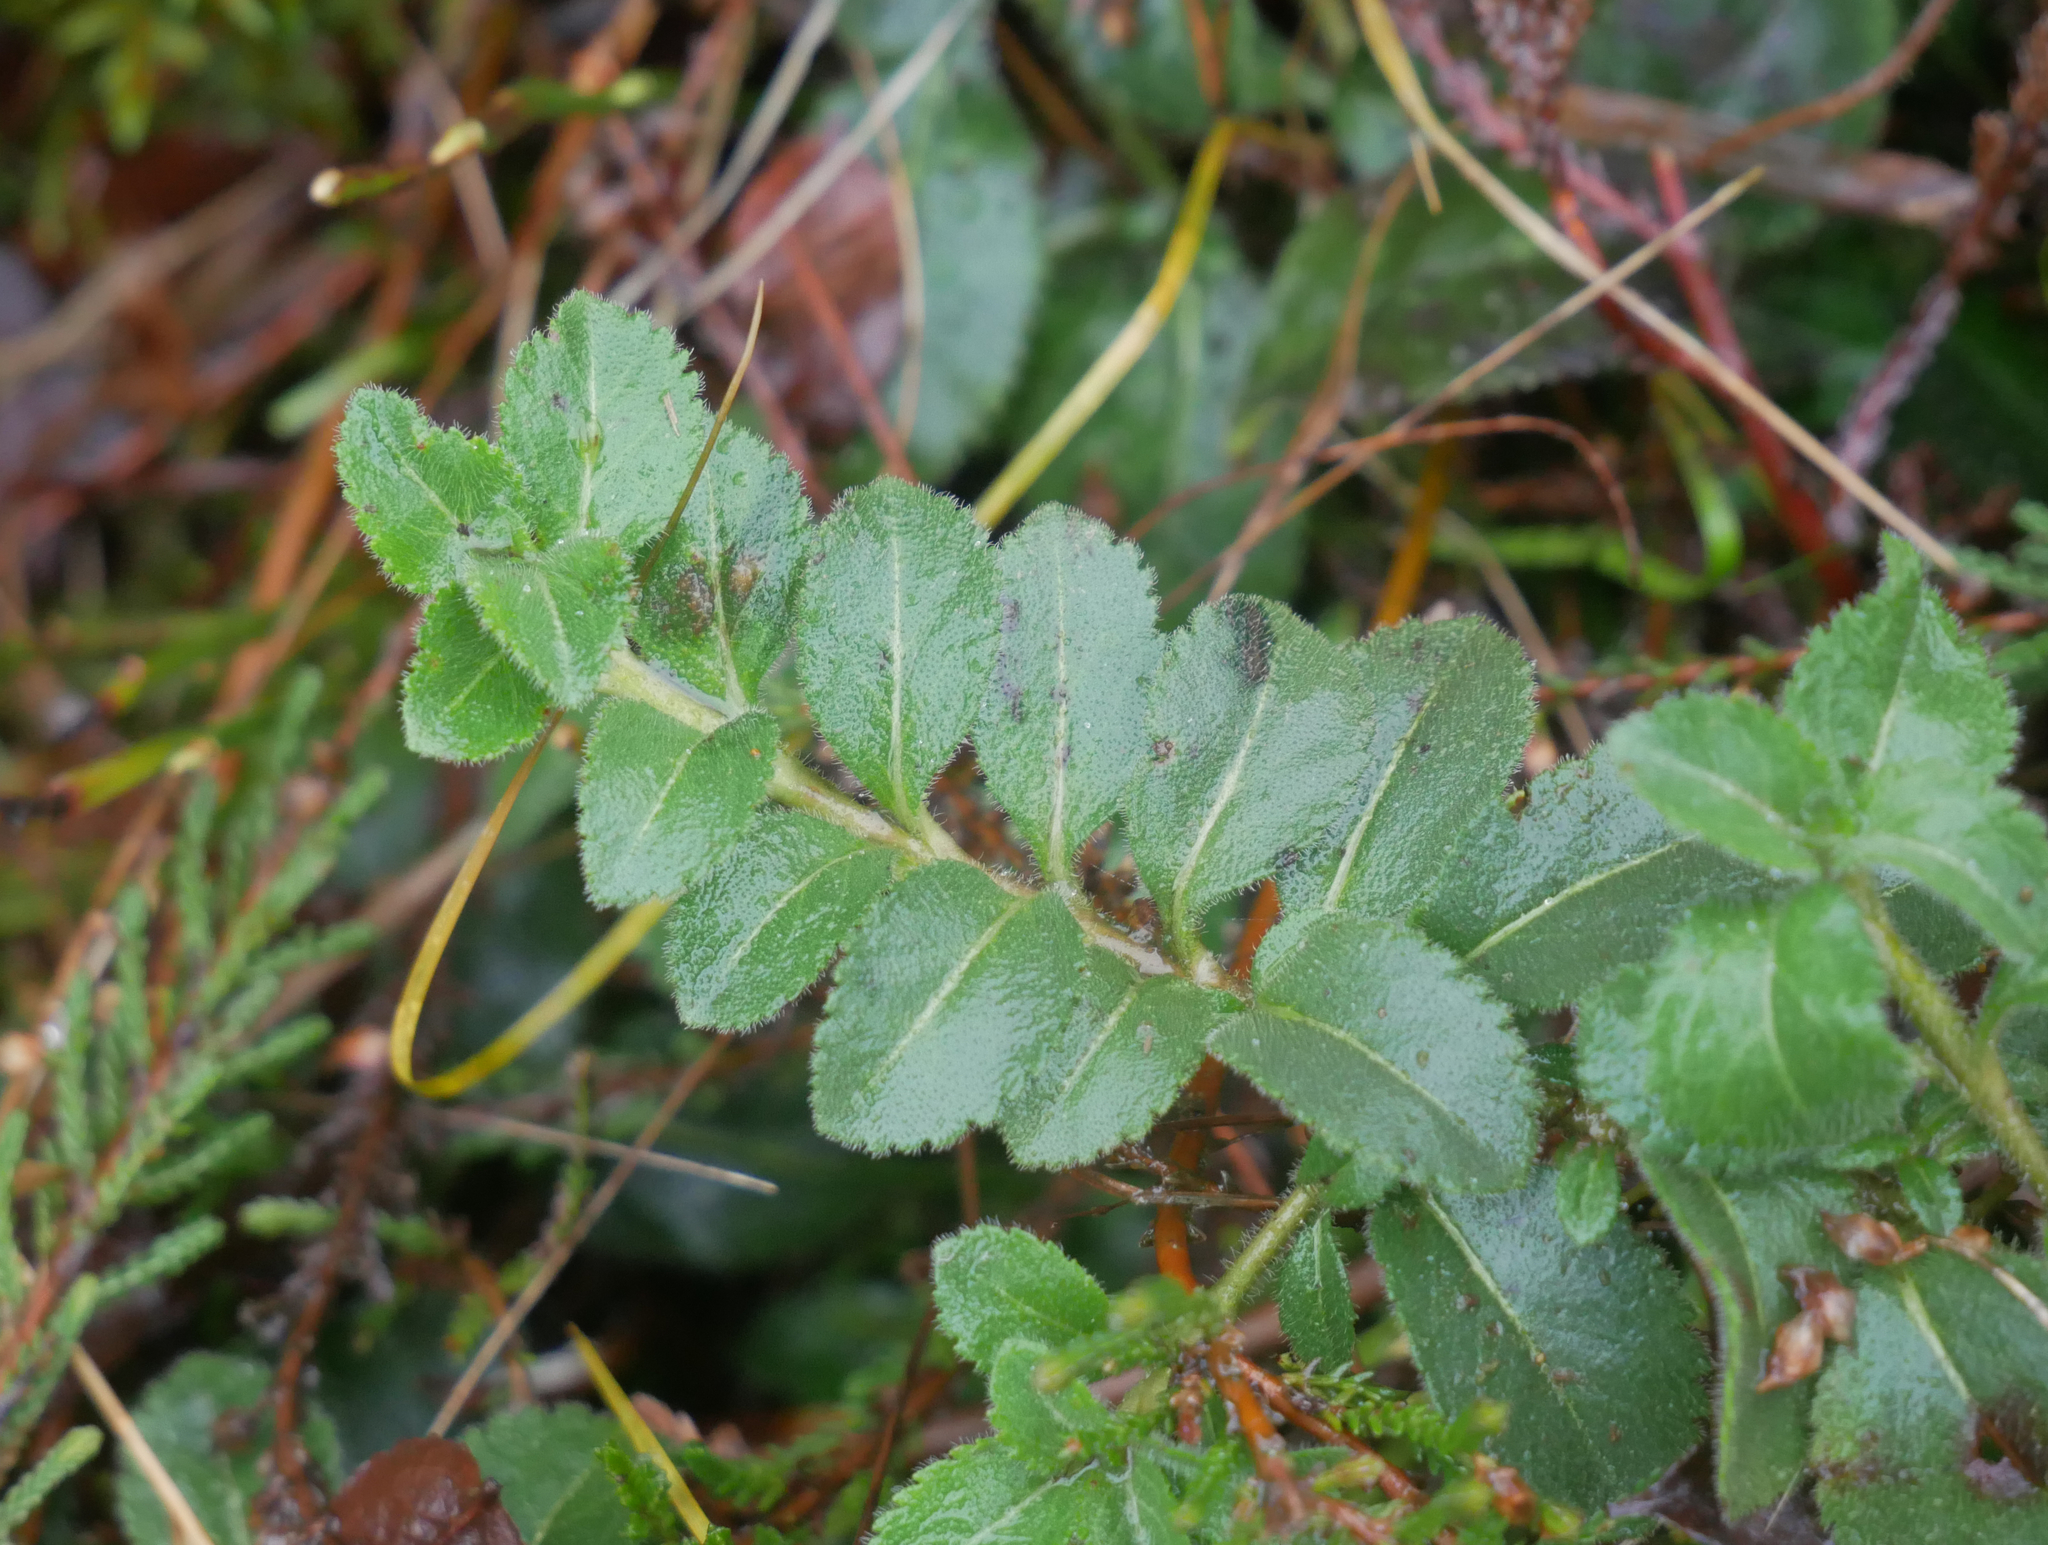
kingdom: Plantae
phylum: Tracheophyta
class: Magnoliopsida
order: Lamiales
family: Plantaginaceae
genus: Veronica
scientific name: Veronica officinalis
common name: Common speedwell
